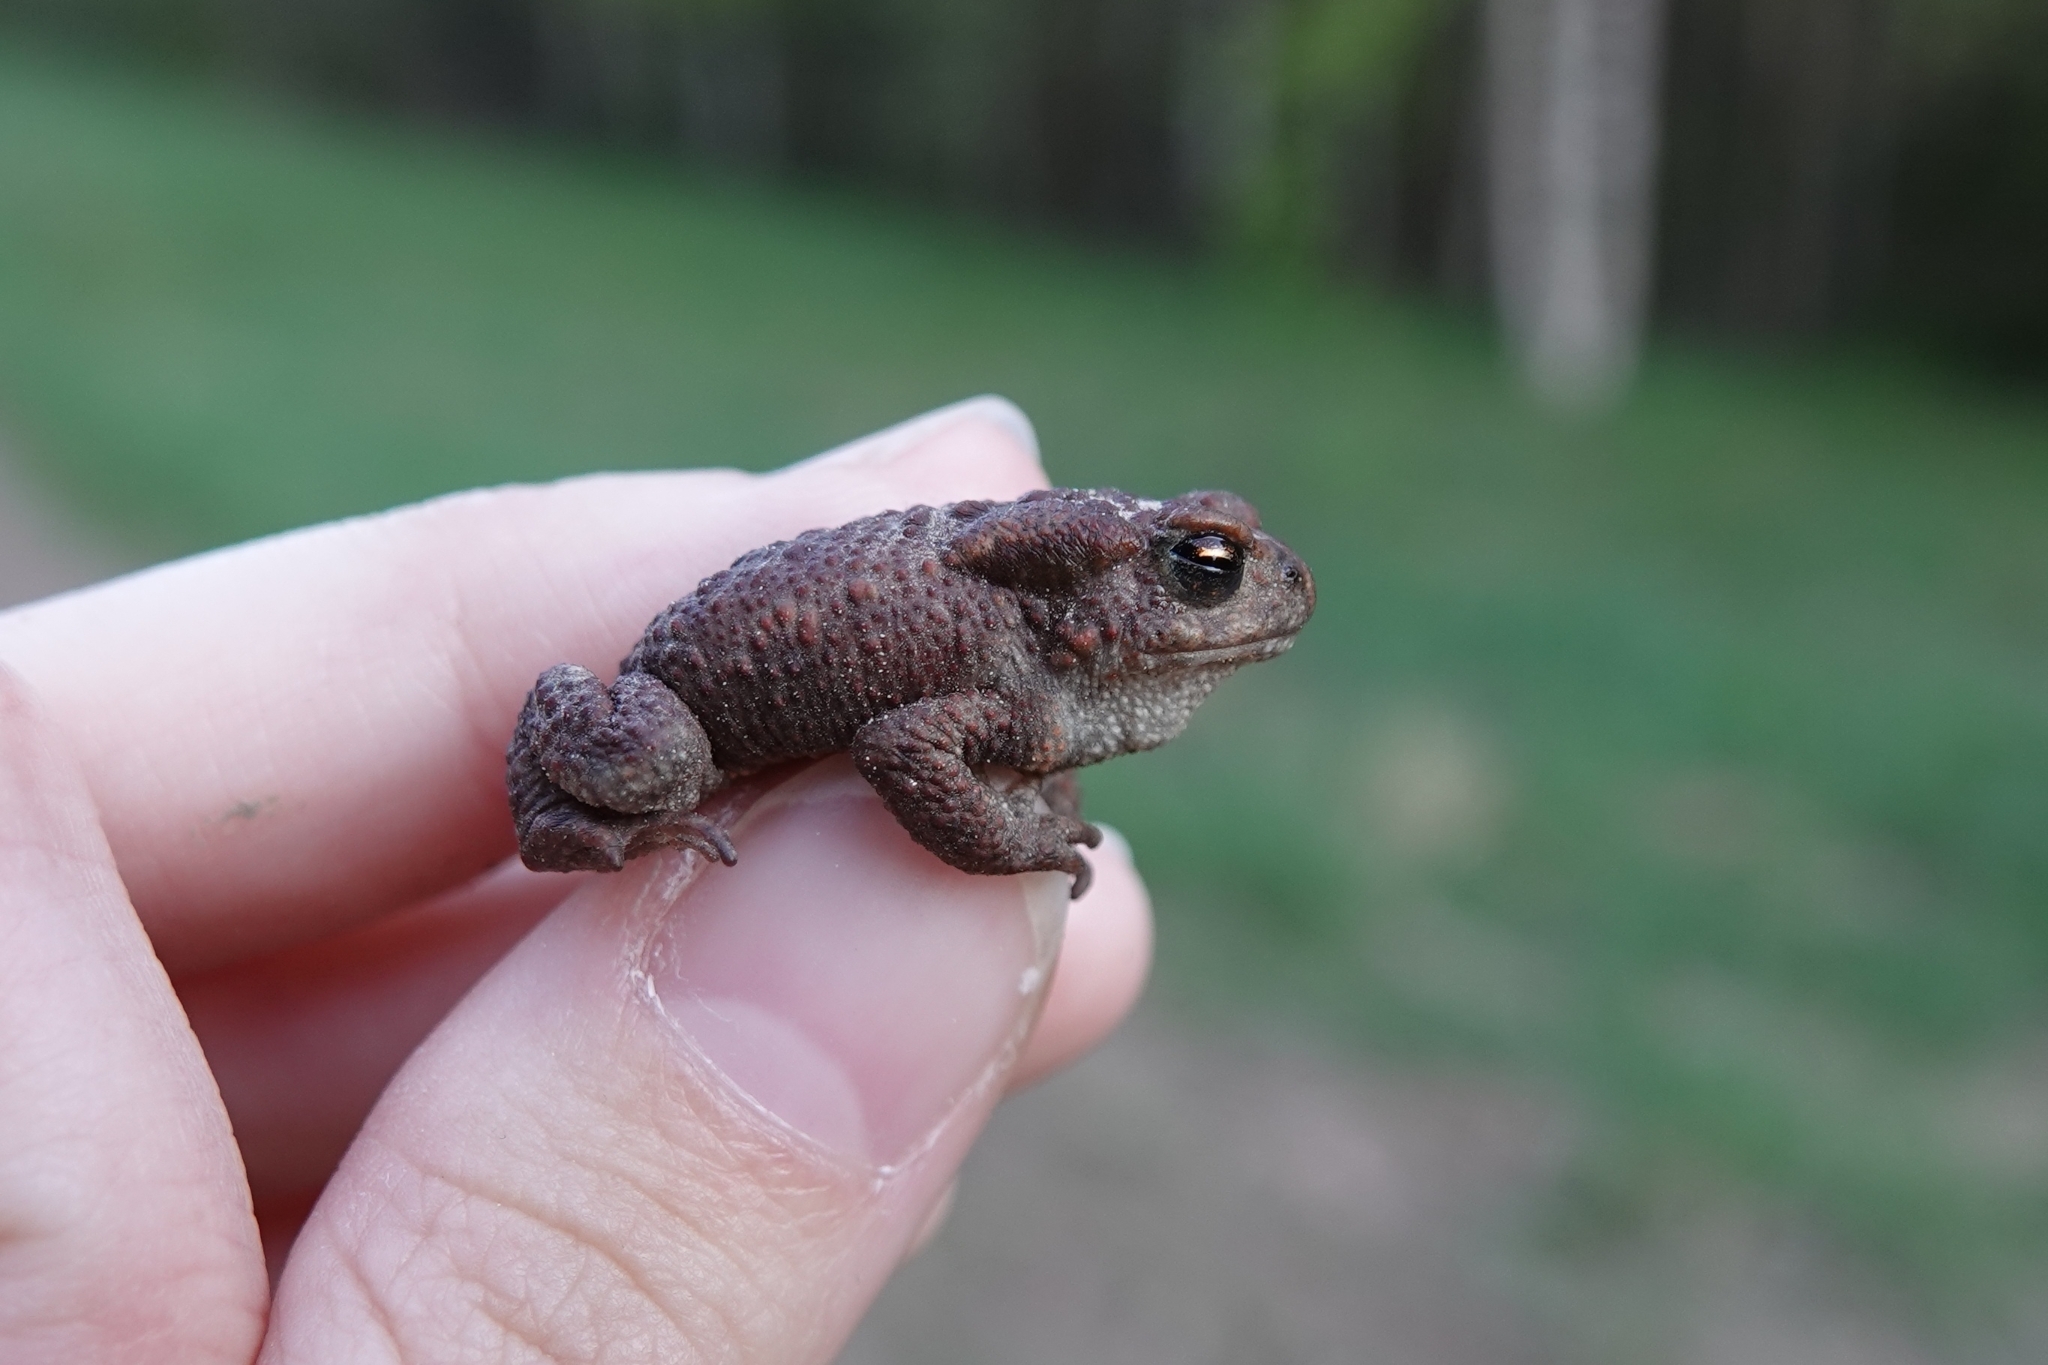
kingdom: Animalia
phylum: Chordata
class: Amphibia
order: Anura
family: Bufonidae
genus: Bufo
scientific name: Bufo bufo
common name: Common toad
